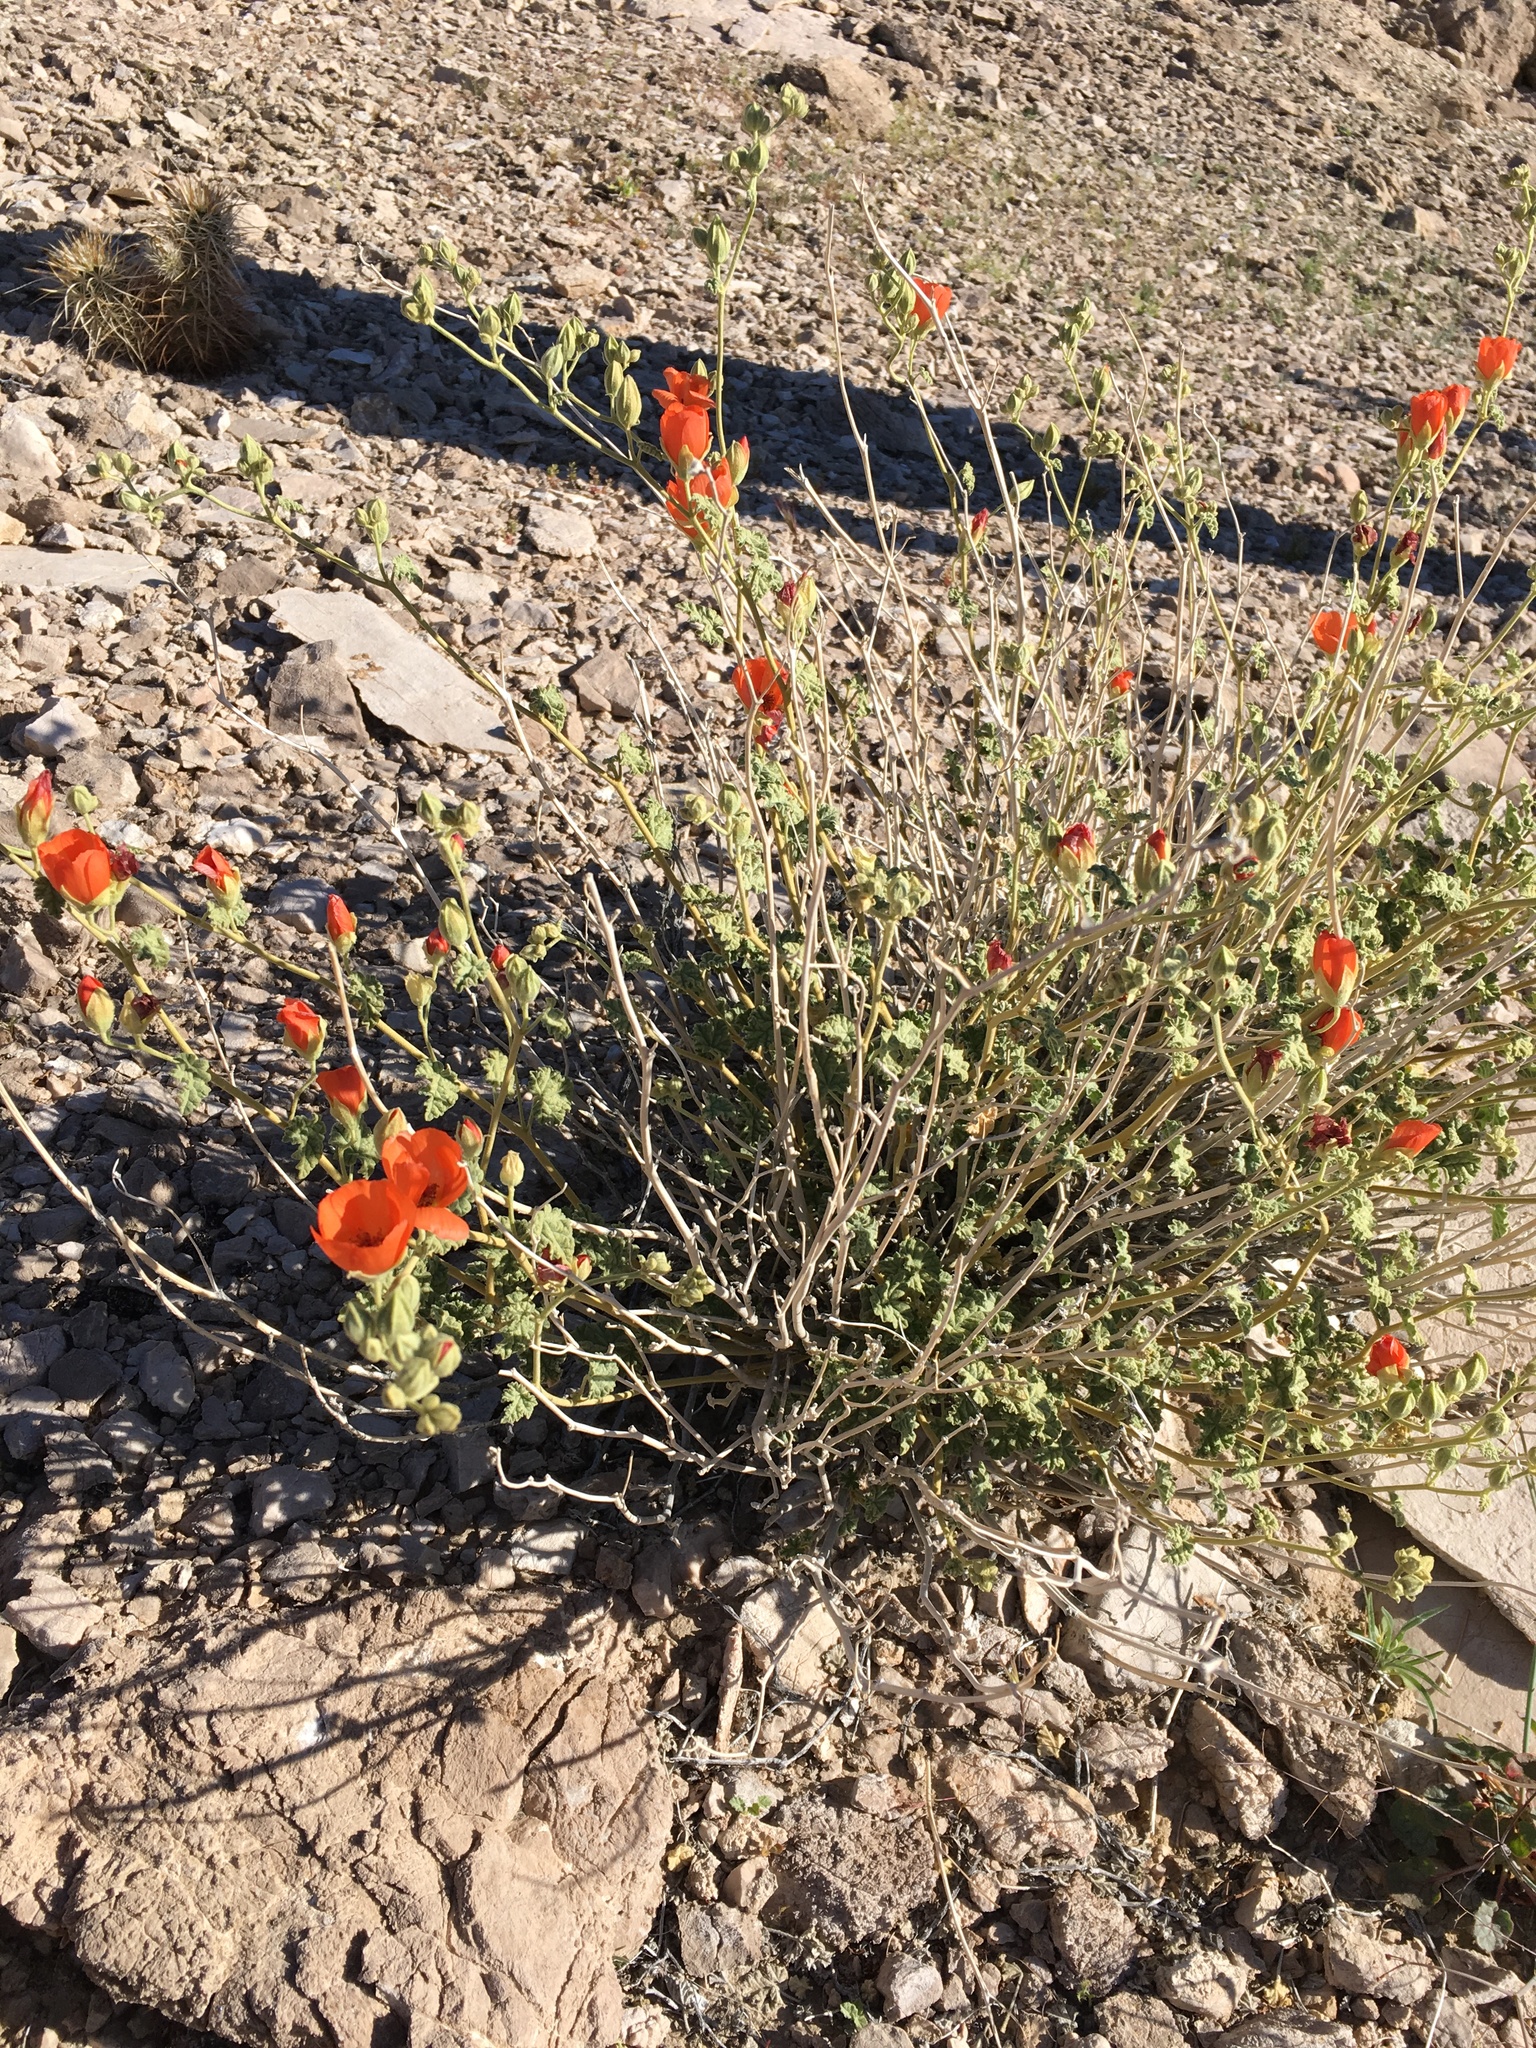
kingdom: Plantae
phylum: Tracheophyta
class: Magnoliopsida
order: Malvales
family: Malvaceae
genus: Sphaeralcea
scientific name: Sphaeralcea ambigua
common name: Apricot globe-mallow
